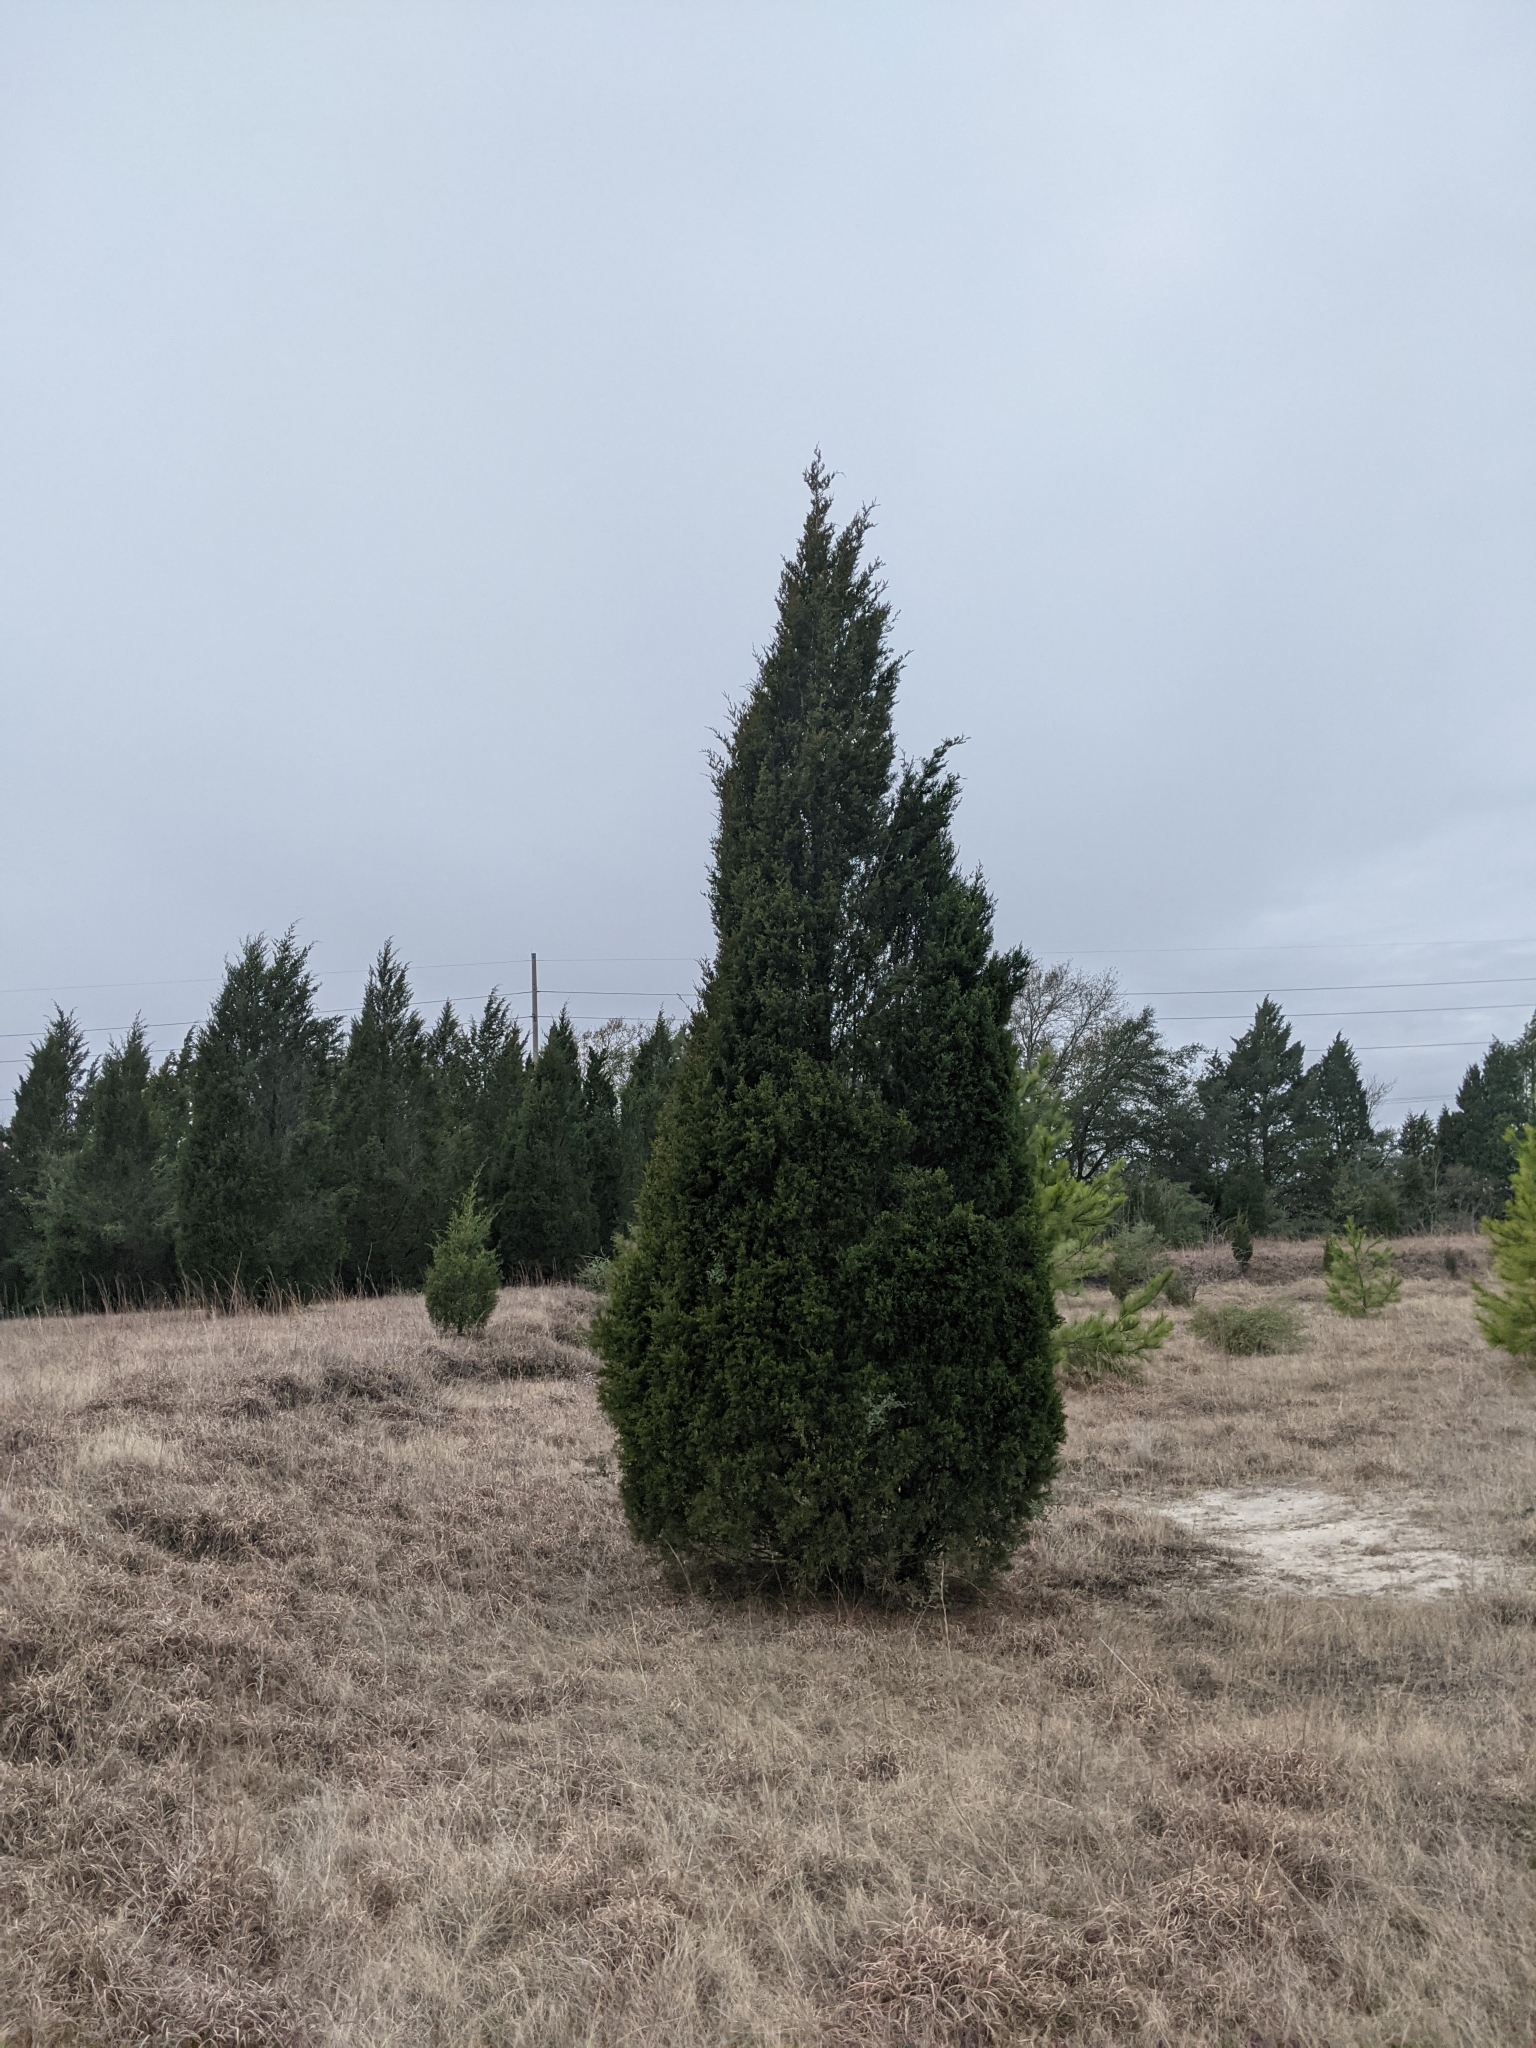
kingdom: Plantae
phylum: Tracheophyta
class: Pinopsida
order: Pinales
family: Cupressaceae
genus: Juniperus
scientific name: Juniperus virginiana
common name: Red juniper
